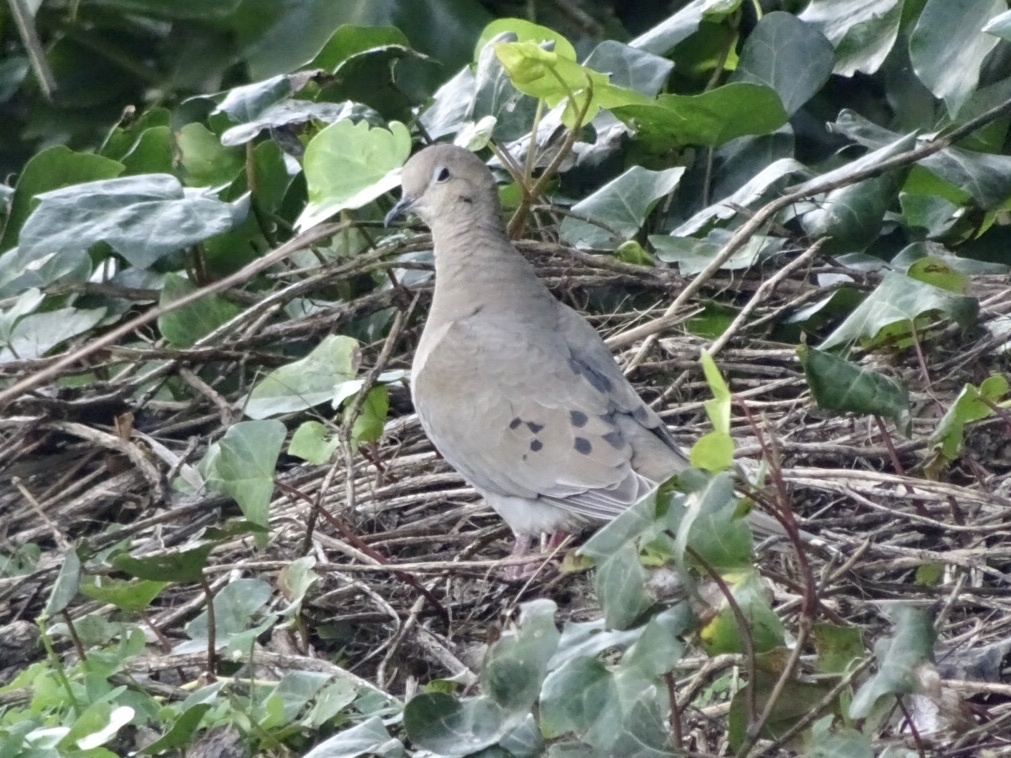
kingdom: Animalia
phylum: Chordata
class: Aves
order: Columbiformes
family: Columbidae
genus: Zenaida
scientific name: Zenaida macroura
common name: Mourning dove
